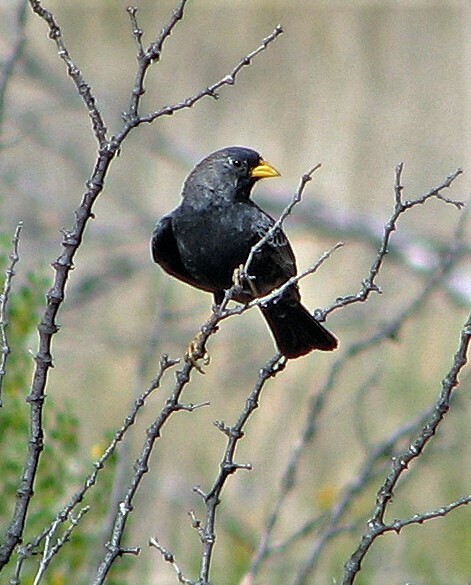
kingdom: Animalia
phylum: Chordata
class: Aves
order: Passeriformes
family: Thraupidae
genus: Porphyrospiza
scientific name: Porphyrospiza carbonaria
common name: Carbon finch
